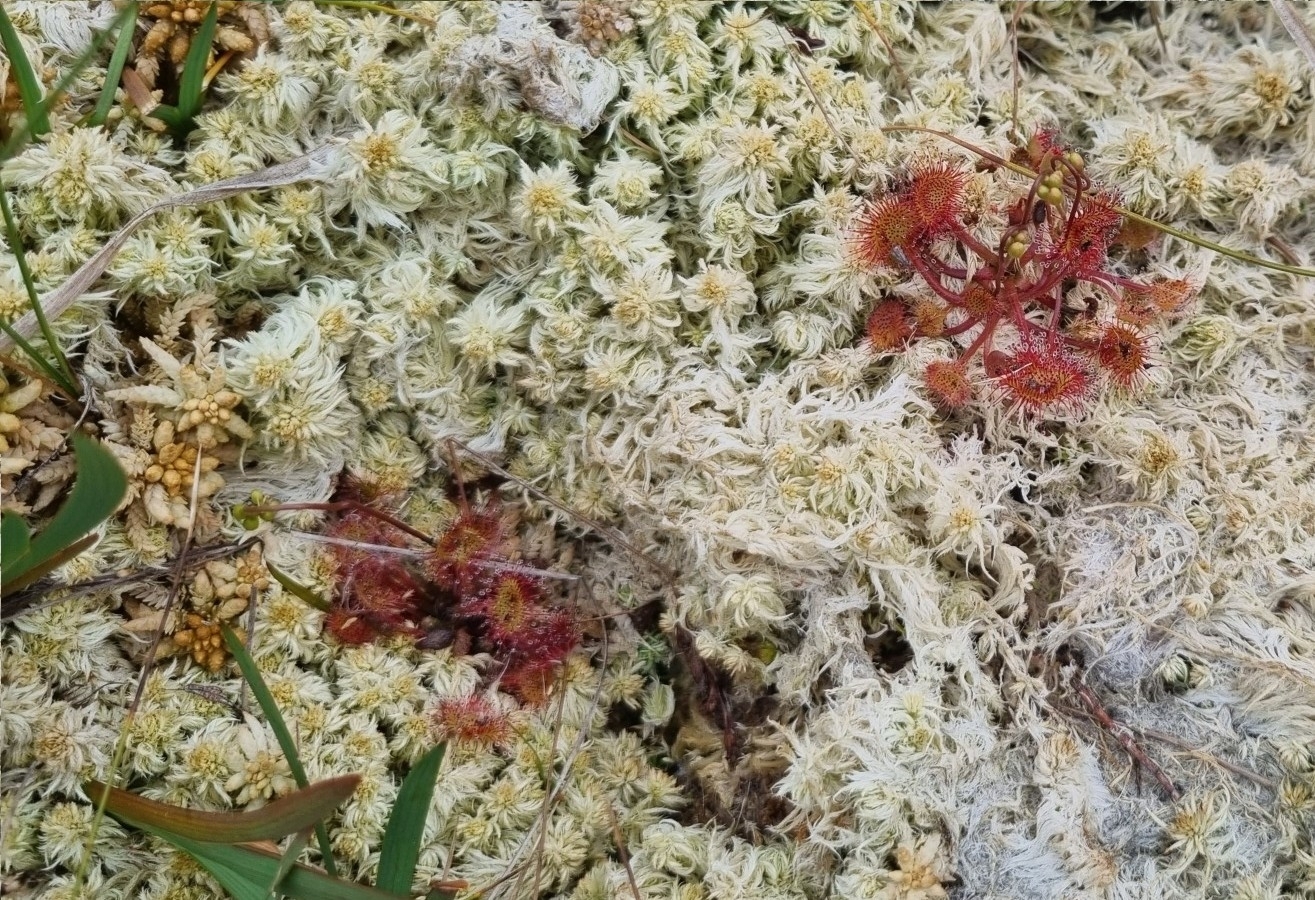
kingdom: Plantae
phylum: Tracheophyta
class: Magnoliopsida
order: Caryophyllales
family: Droseraceae
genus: Drosera
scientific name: Drosera rotundifolia
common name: Round-leaved sundew
